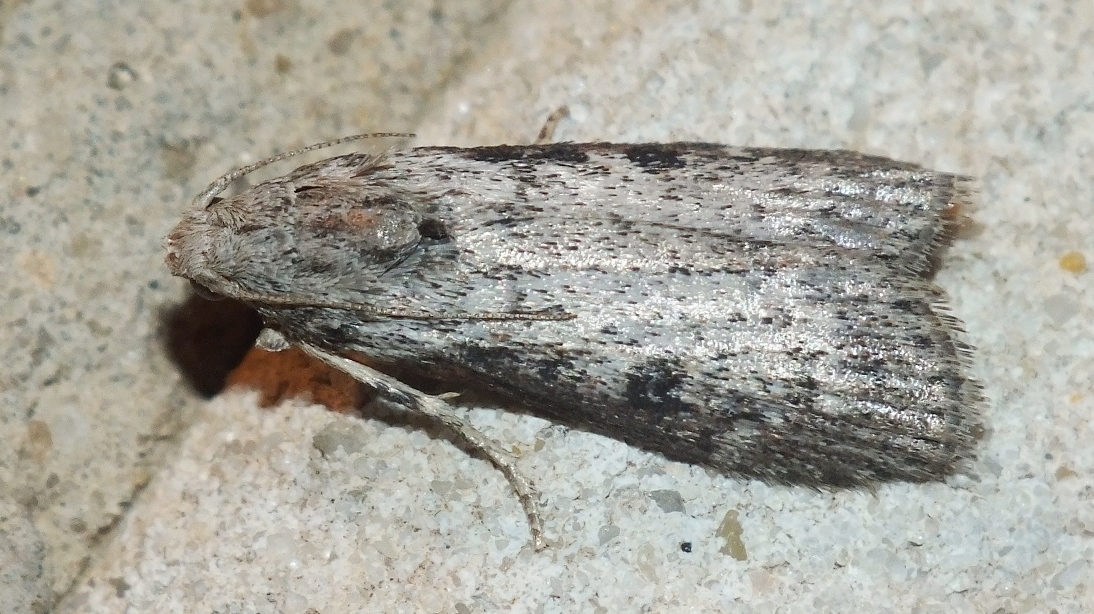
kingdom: Animalia
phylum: Arthropoda
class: Insecta
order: Lepidoptera
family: Pyralidae
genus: Lamoria
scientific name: Lamoria anella
